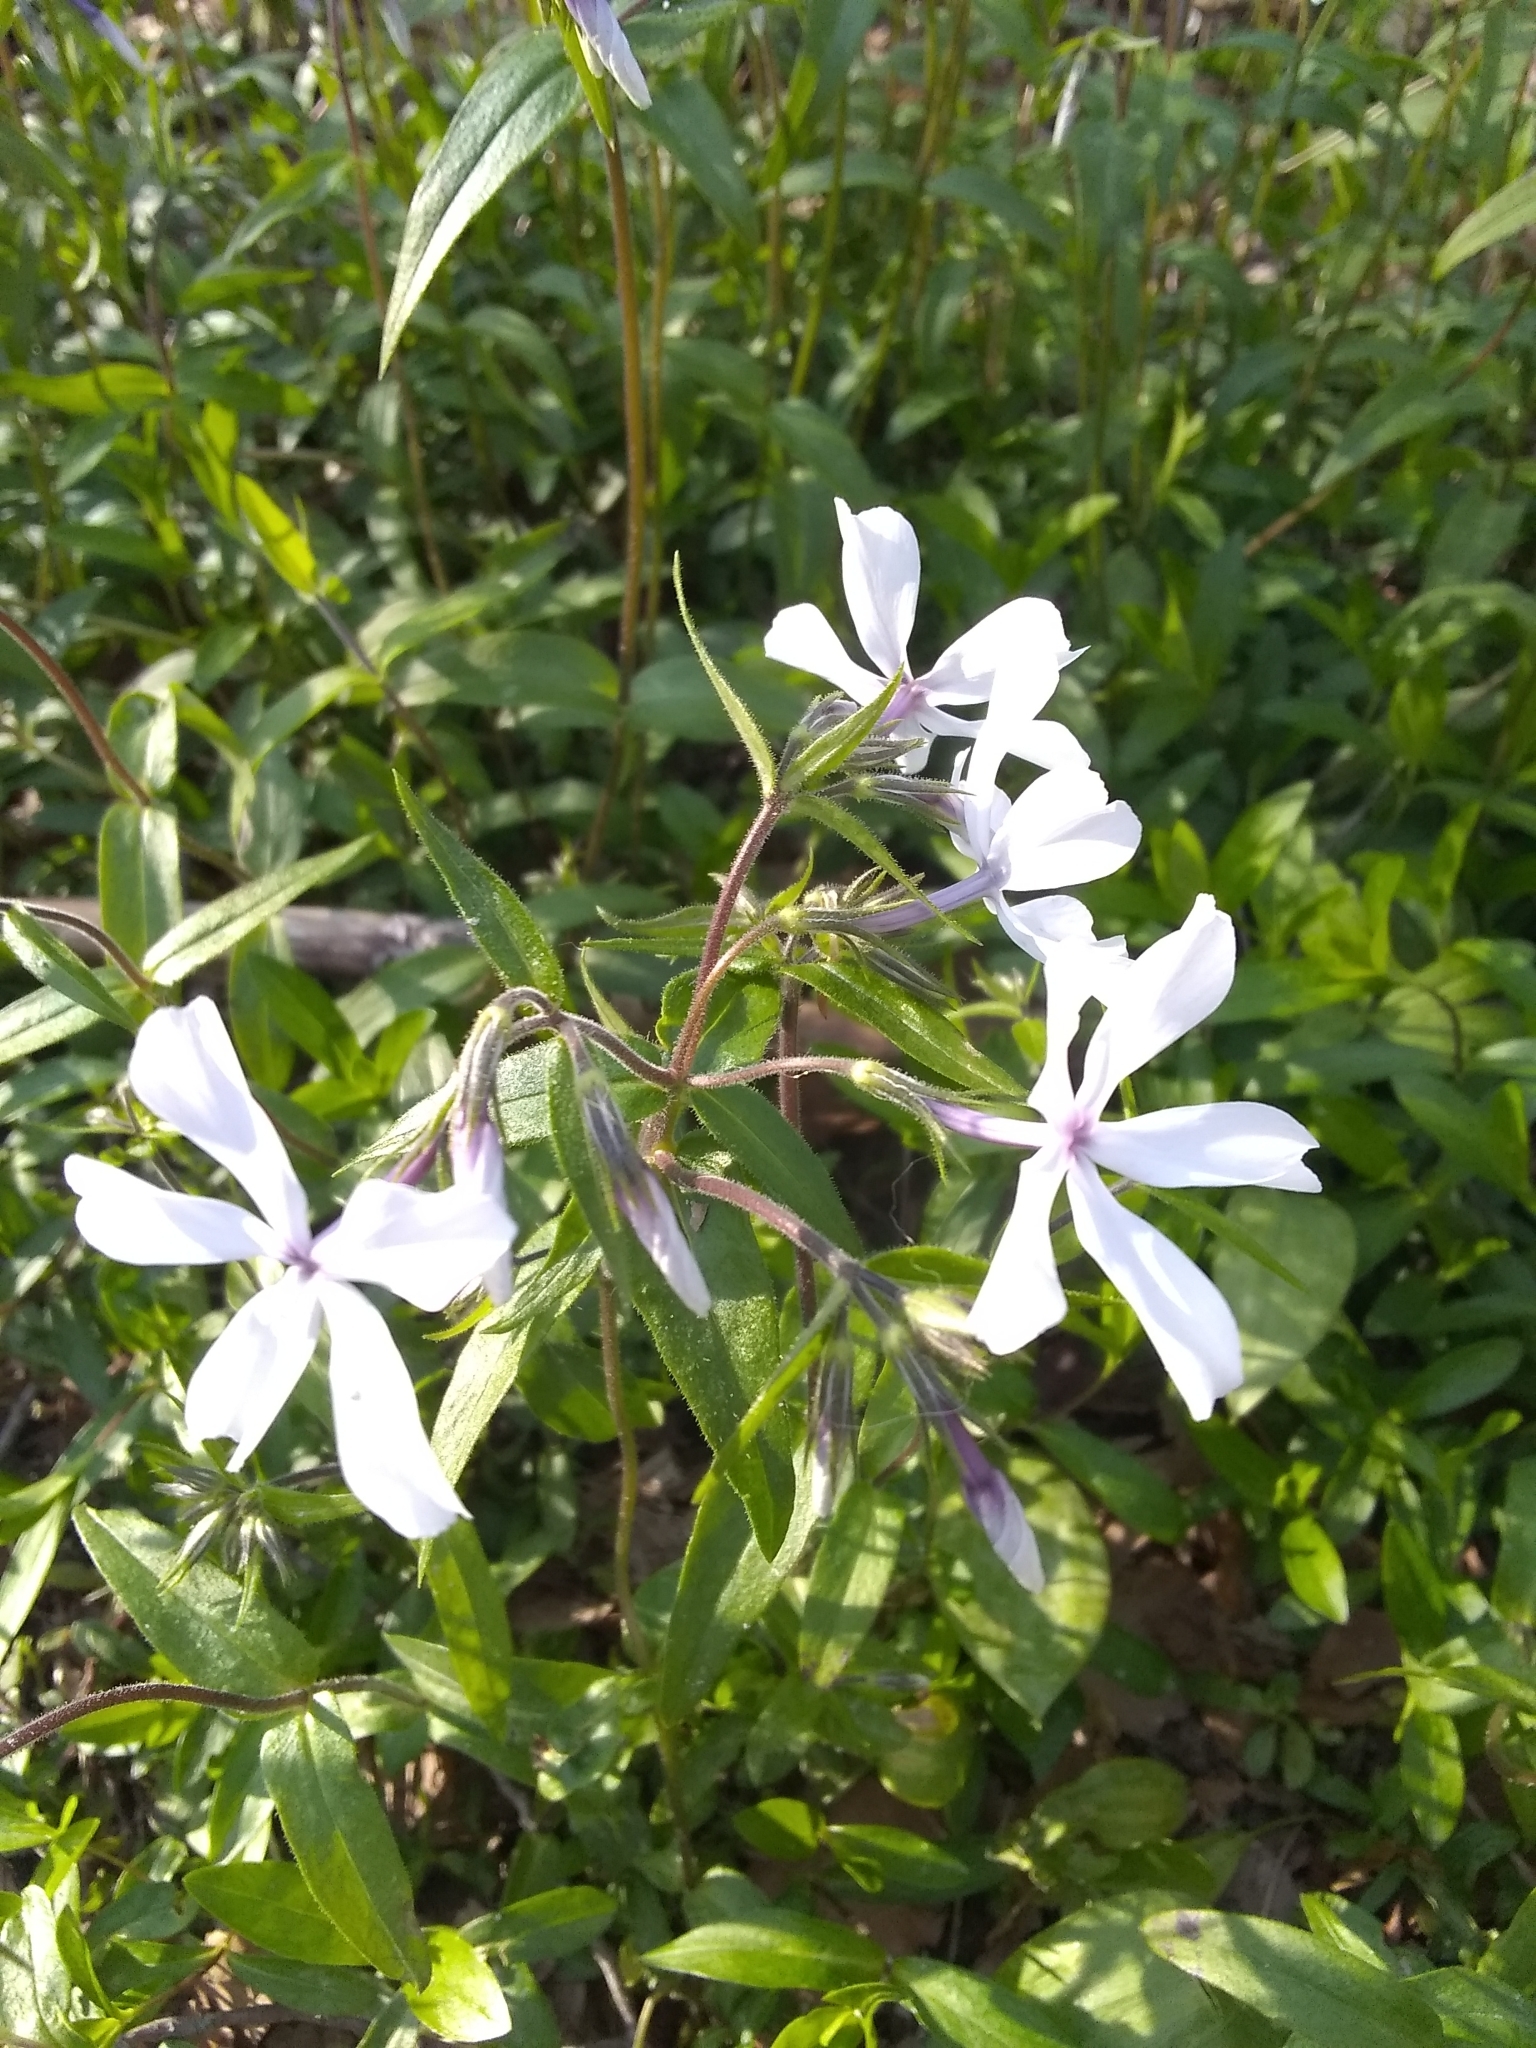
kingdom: Plantae
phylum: Tracheophyta
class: Magnoliopsida
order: Ericales
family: Polemoniaceae
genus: Phlox
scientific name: Phlox divaricata
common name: Blue phlox
